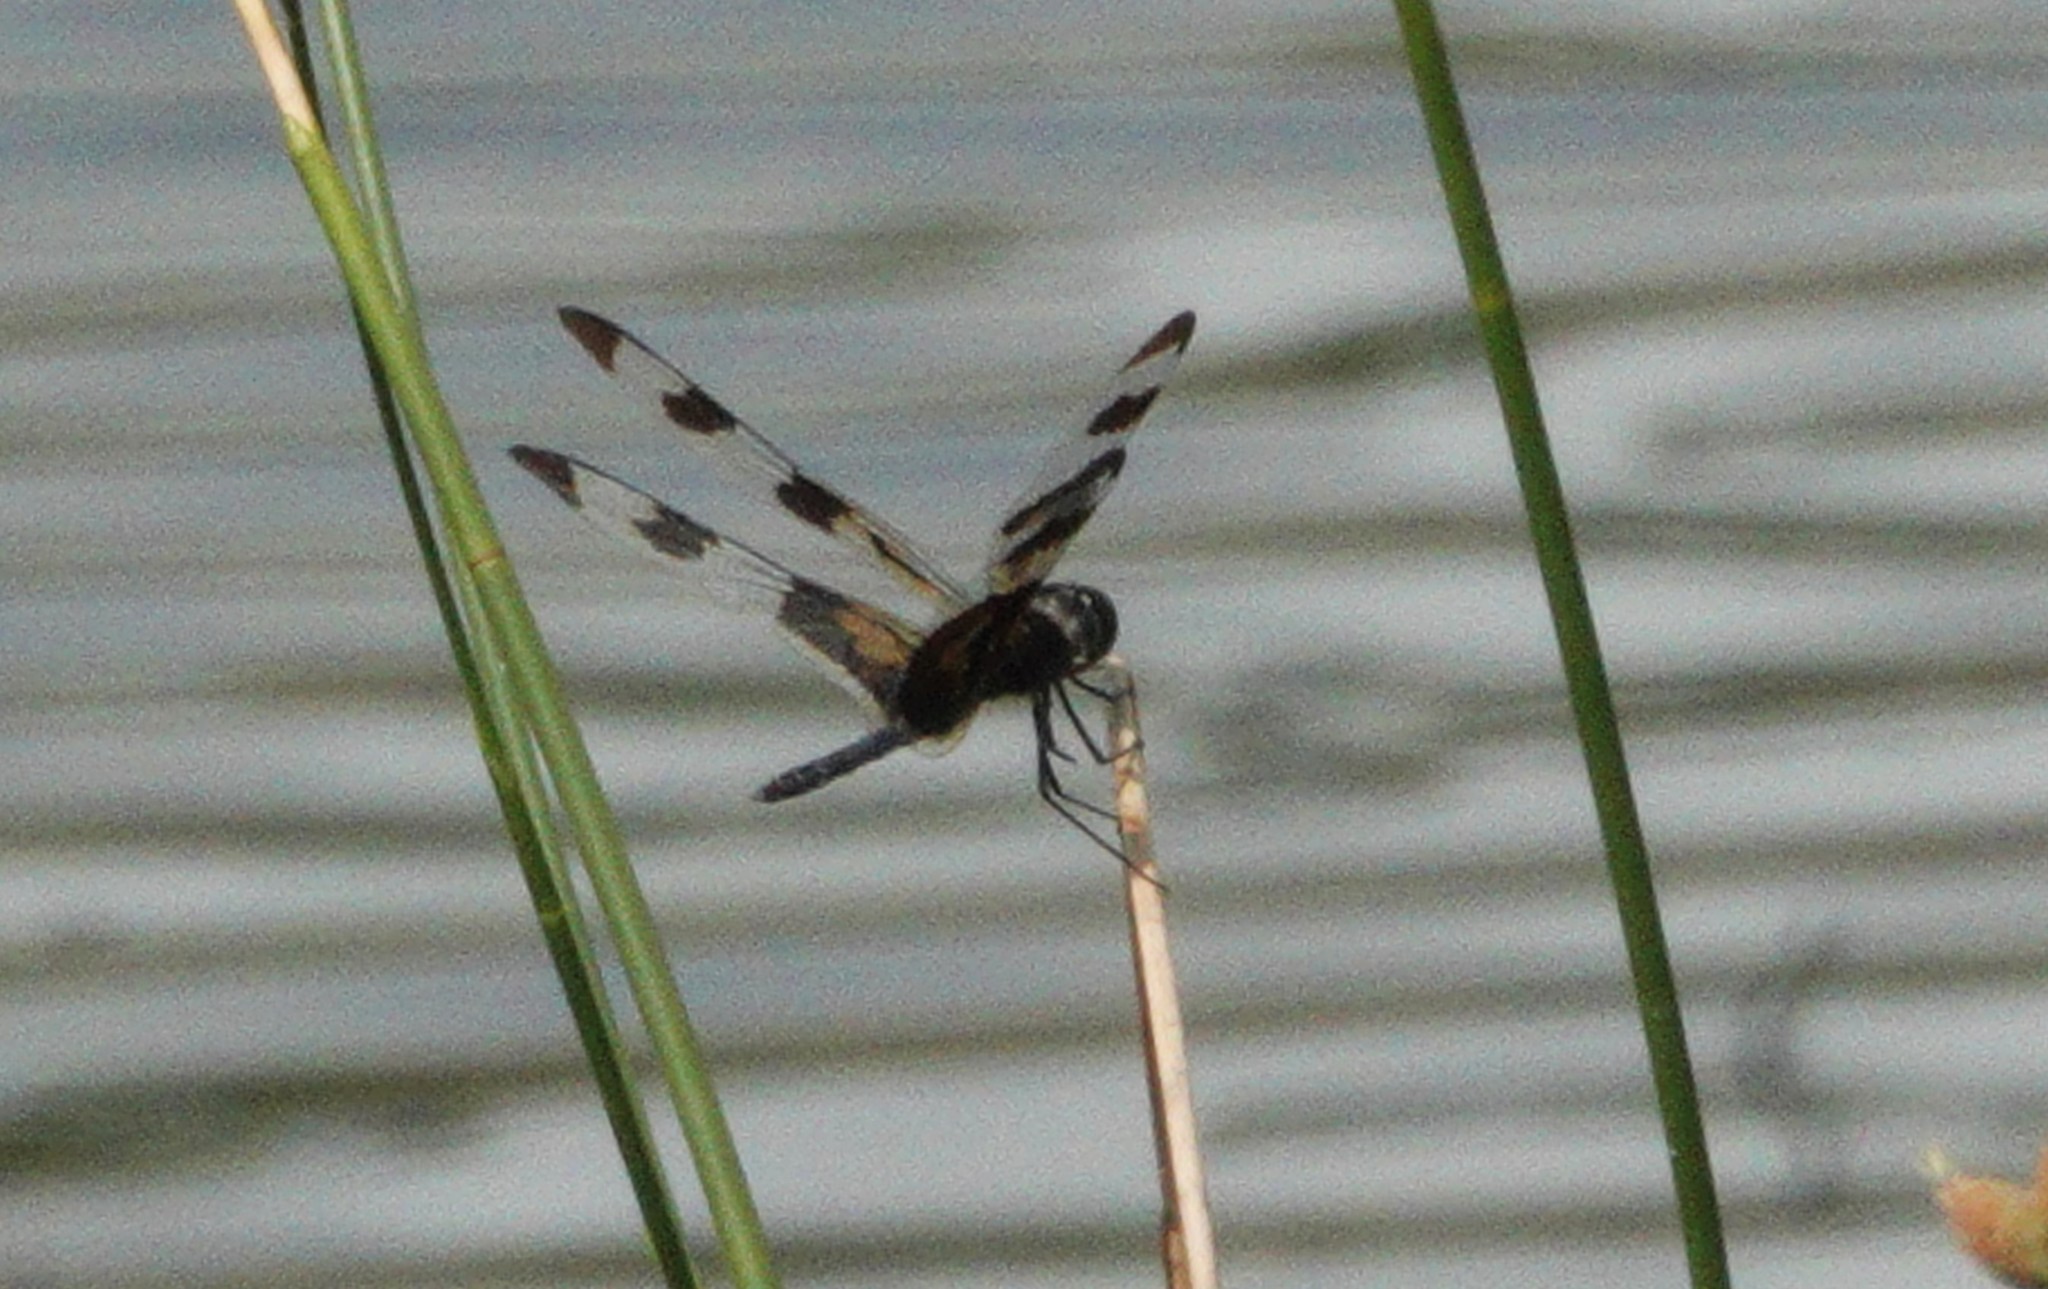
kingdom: Animalia
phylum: Arthropoda
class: Insecta
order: Odonata
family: Libellulidae
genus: Celithemis
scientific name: Celithemis fasciata
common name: Banded pennant
